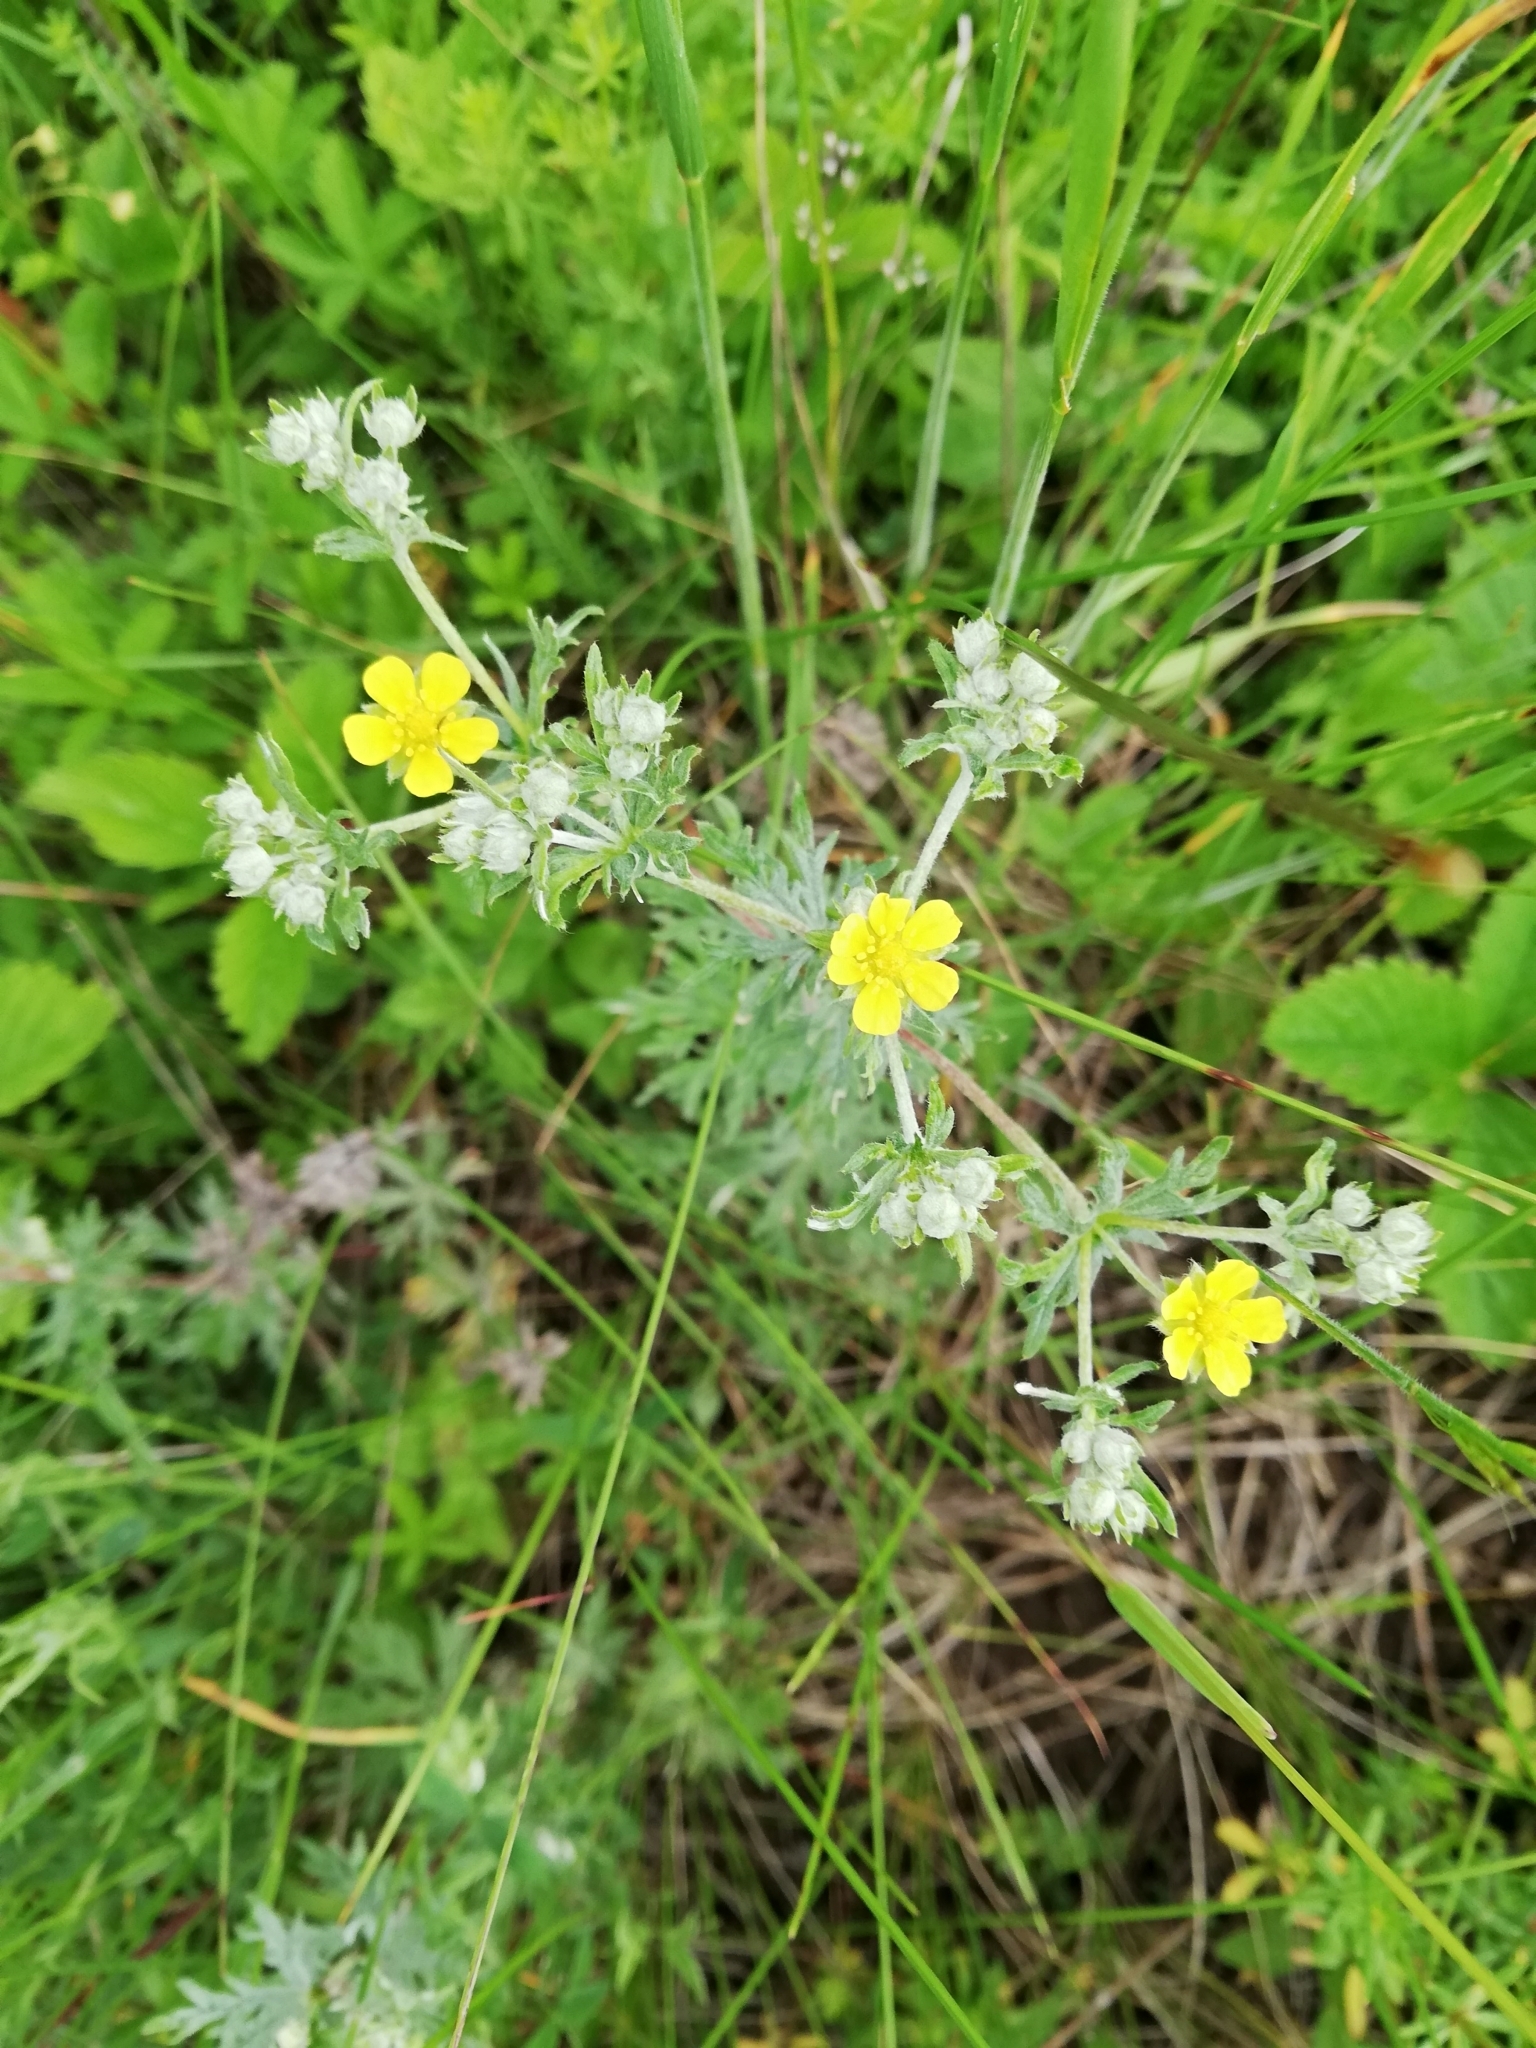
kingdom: Plantae
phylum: Tracheophyta
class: Magnoliopsida
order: Rosales
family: Rosaceae
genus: Potentilla
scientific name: Potentilla argentea
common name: Hoary cinquefoil
